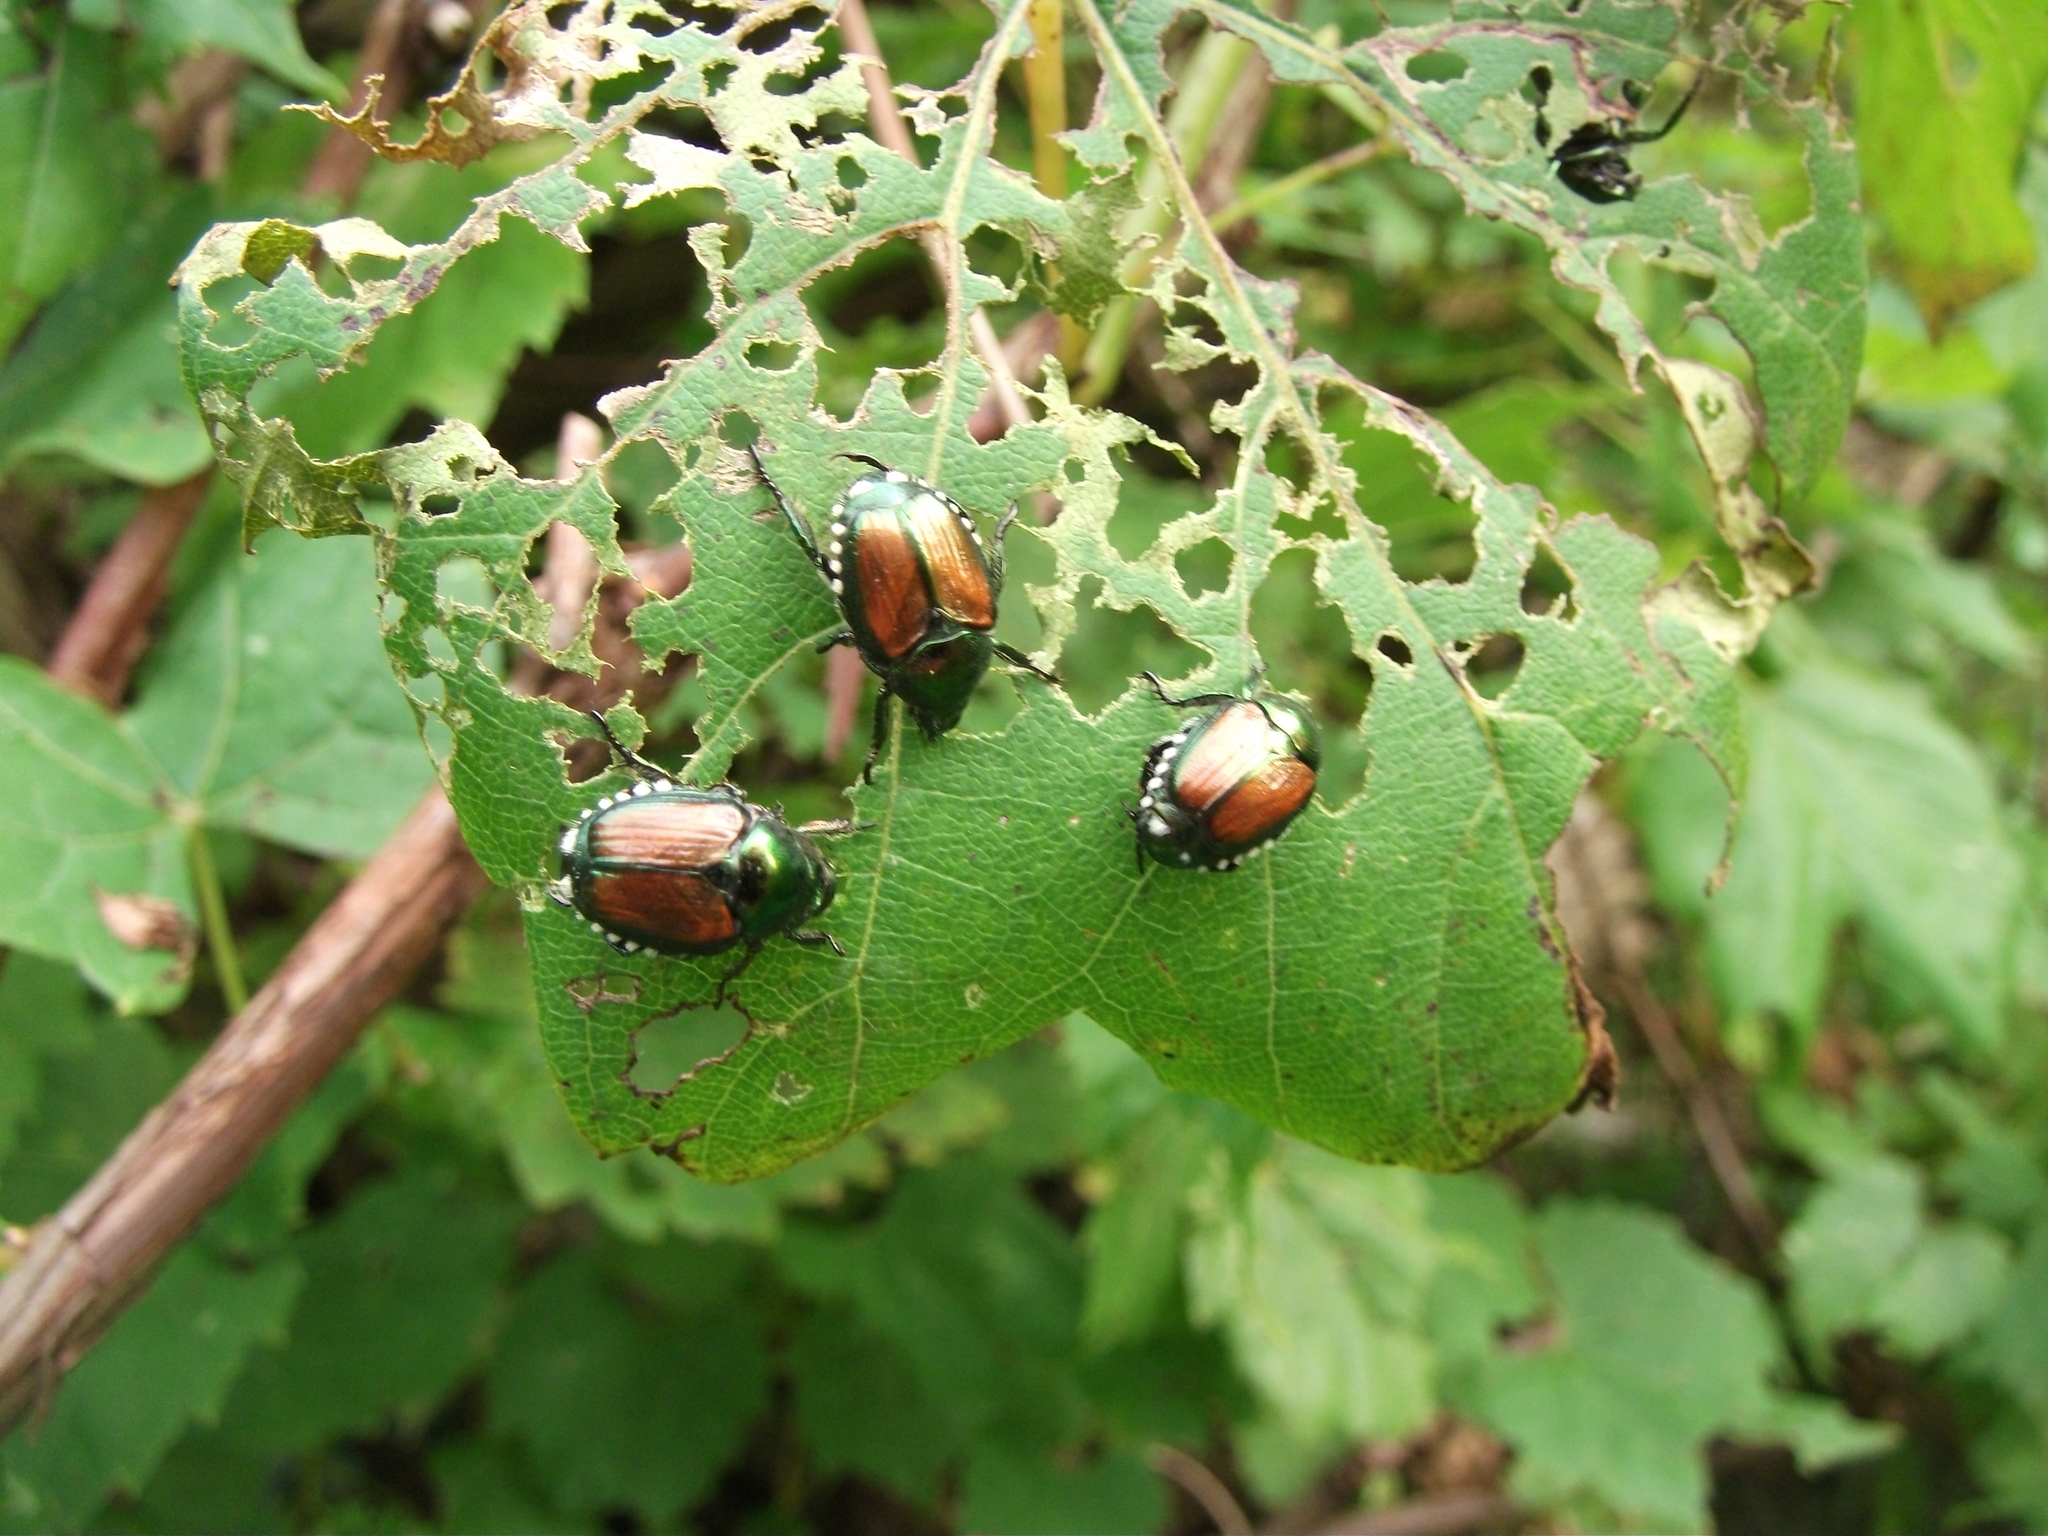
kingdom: Animalia
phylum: Arthropoda
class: Insecta
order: Coleoptera
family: Scarabaeidae
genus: Popillia
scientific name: Popillia japonica
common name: Japanese beetle
